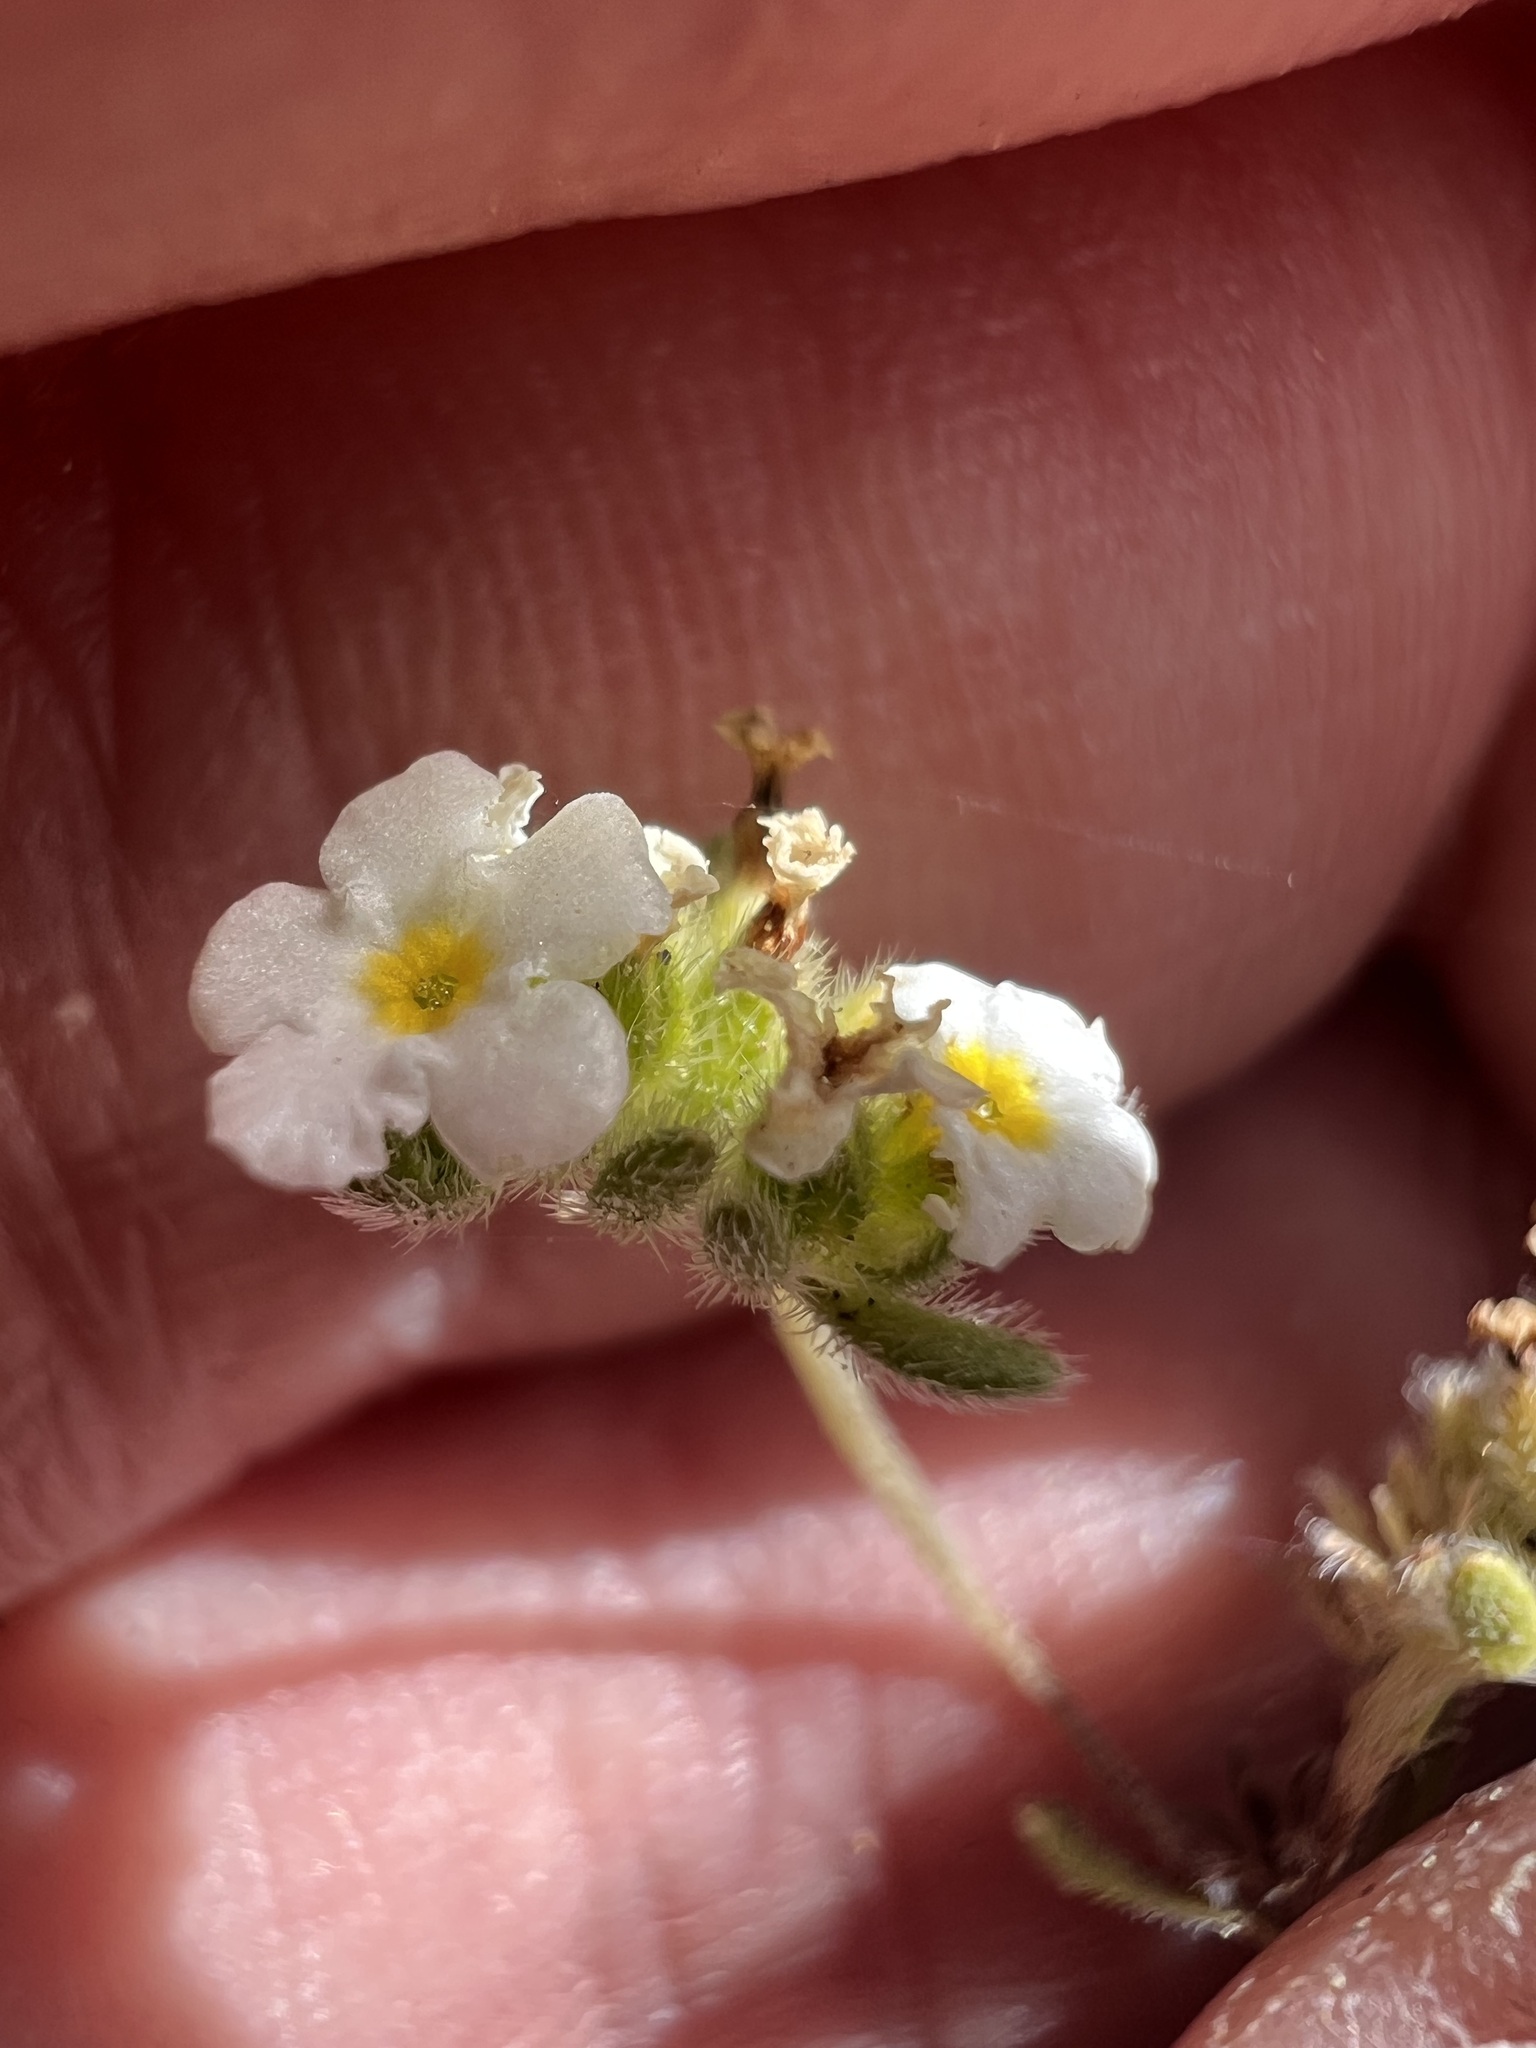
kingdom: Plantae
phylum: Tracheophyta
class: Magnoliopsida
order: Boraginales
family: Boraginaceae
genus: Eremocarya
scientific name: Eremocarya lepida
